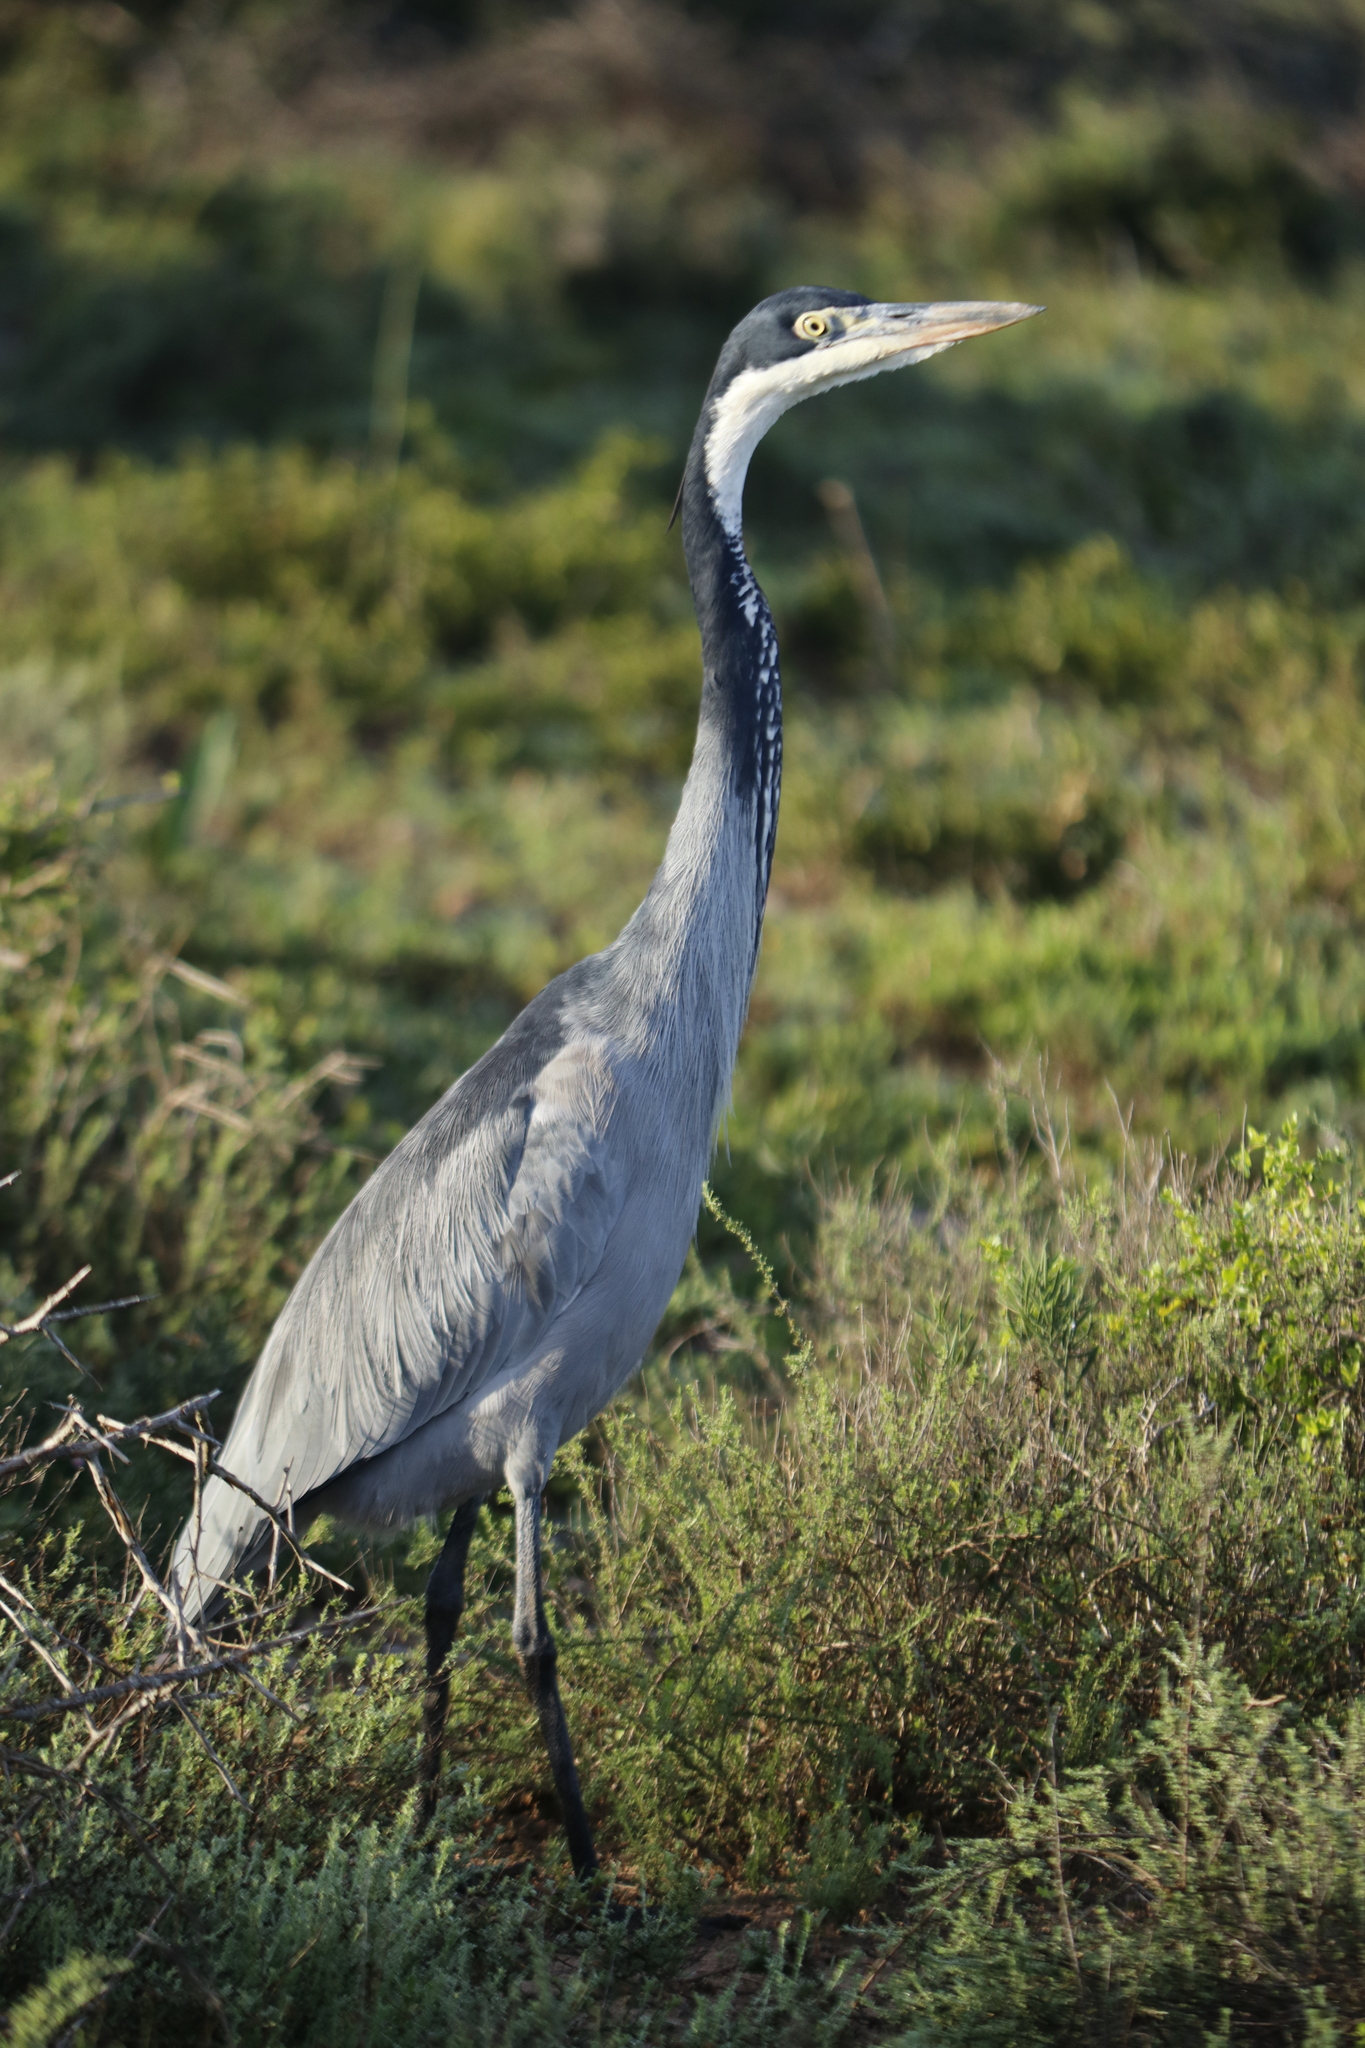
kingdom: Animalia
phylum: Chordata
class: Aves
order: Pelecaniformes
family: Ardeidae
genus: Ardea
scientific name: Ardea melanocephala
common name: Black-headed heron
